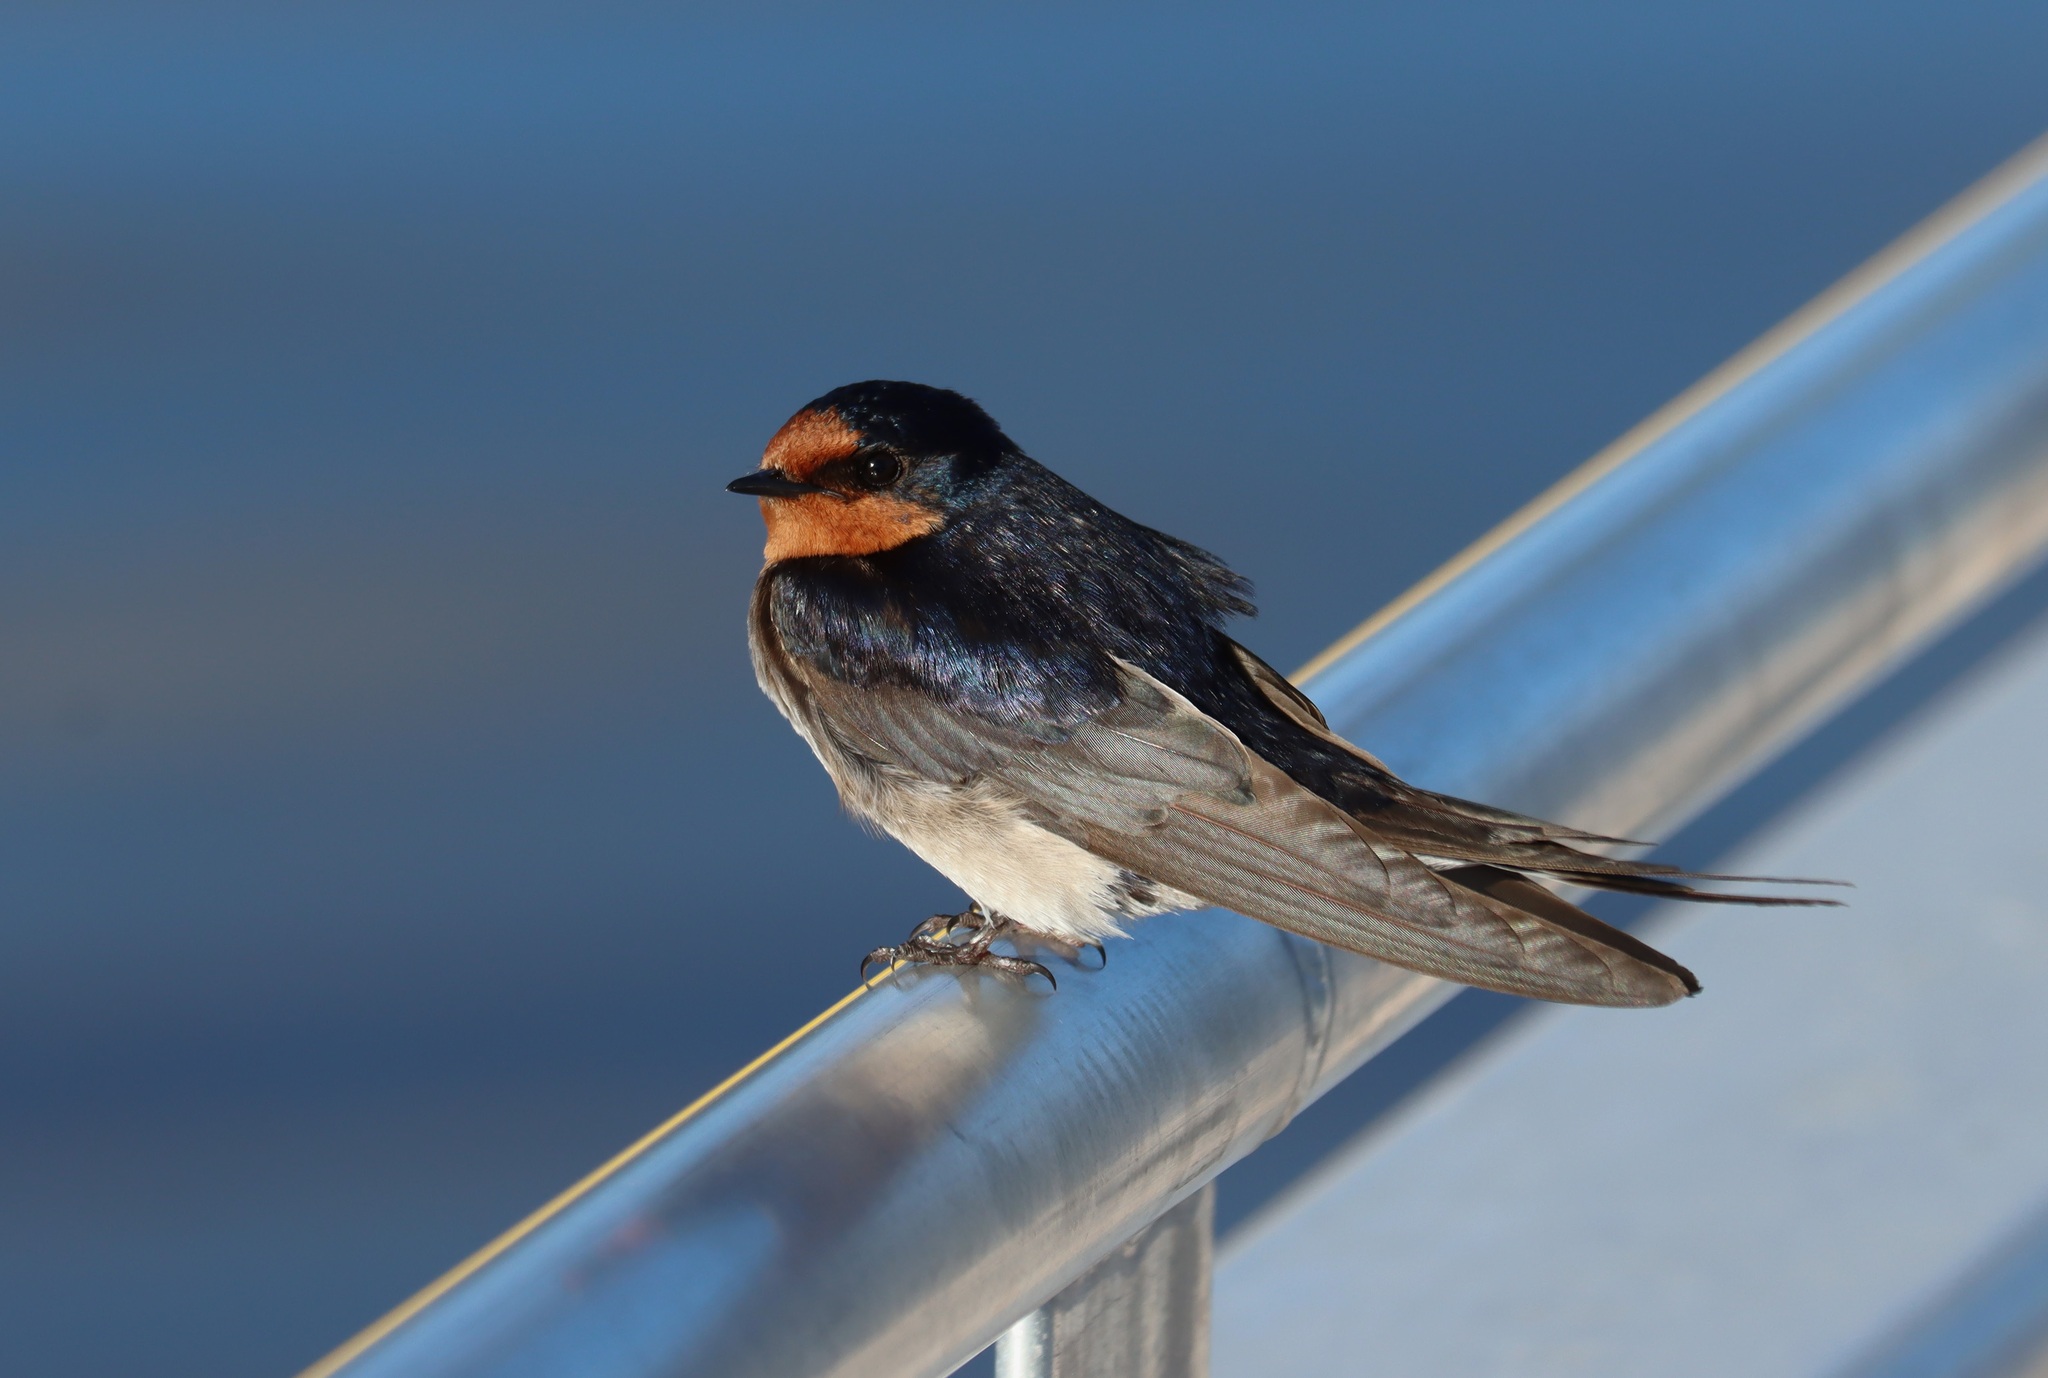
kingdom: Animalia
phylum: Chordata
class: Aves
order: Passeriformes
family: Hirundinidae
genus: Hirundo
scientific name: Hirundo neoxena
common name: Welcome swallow
